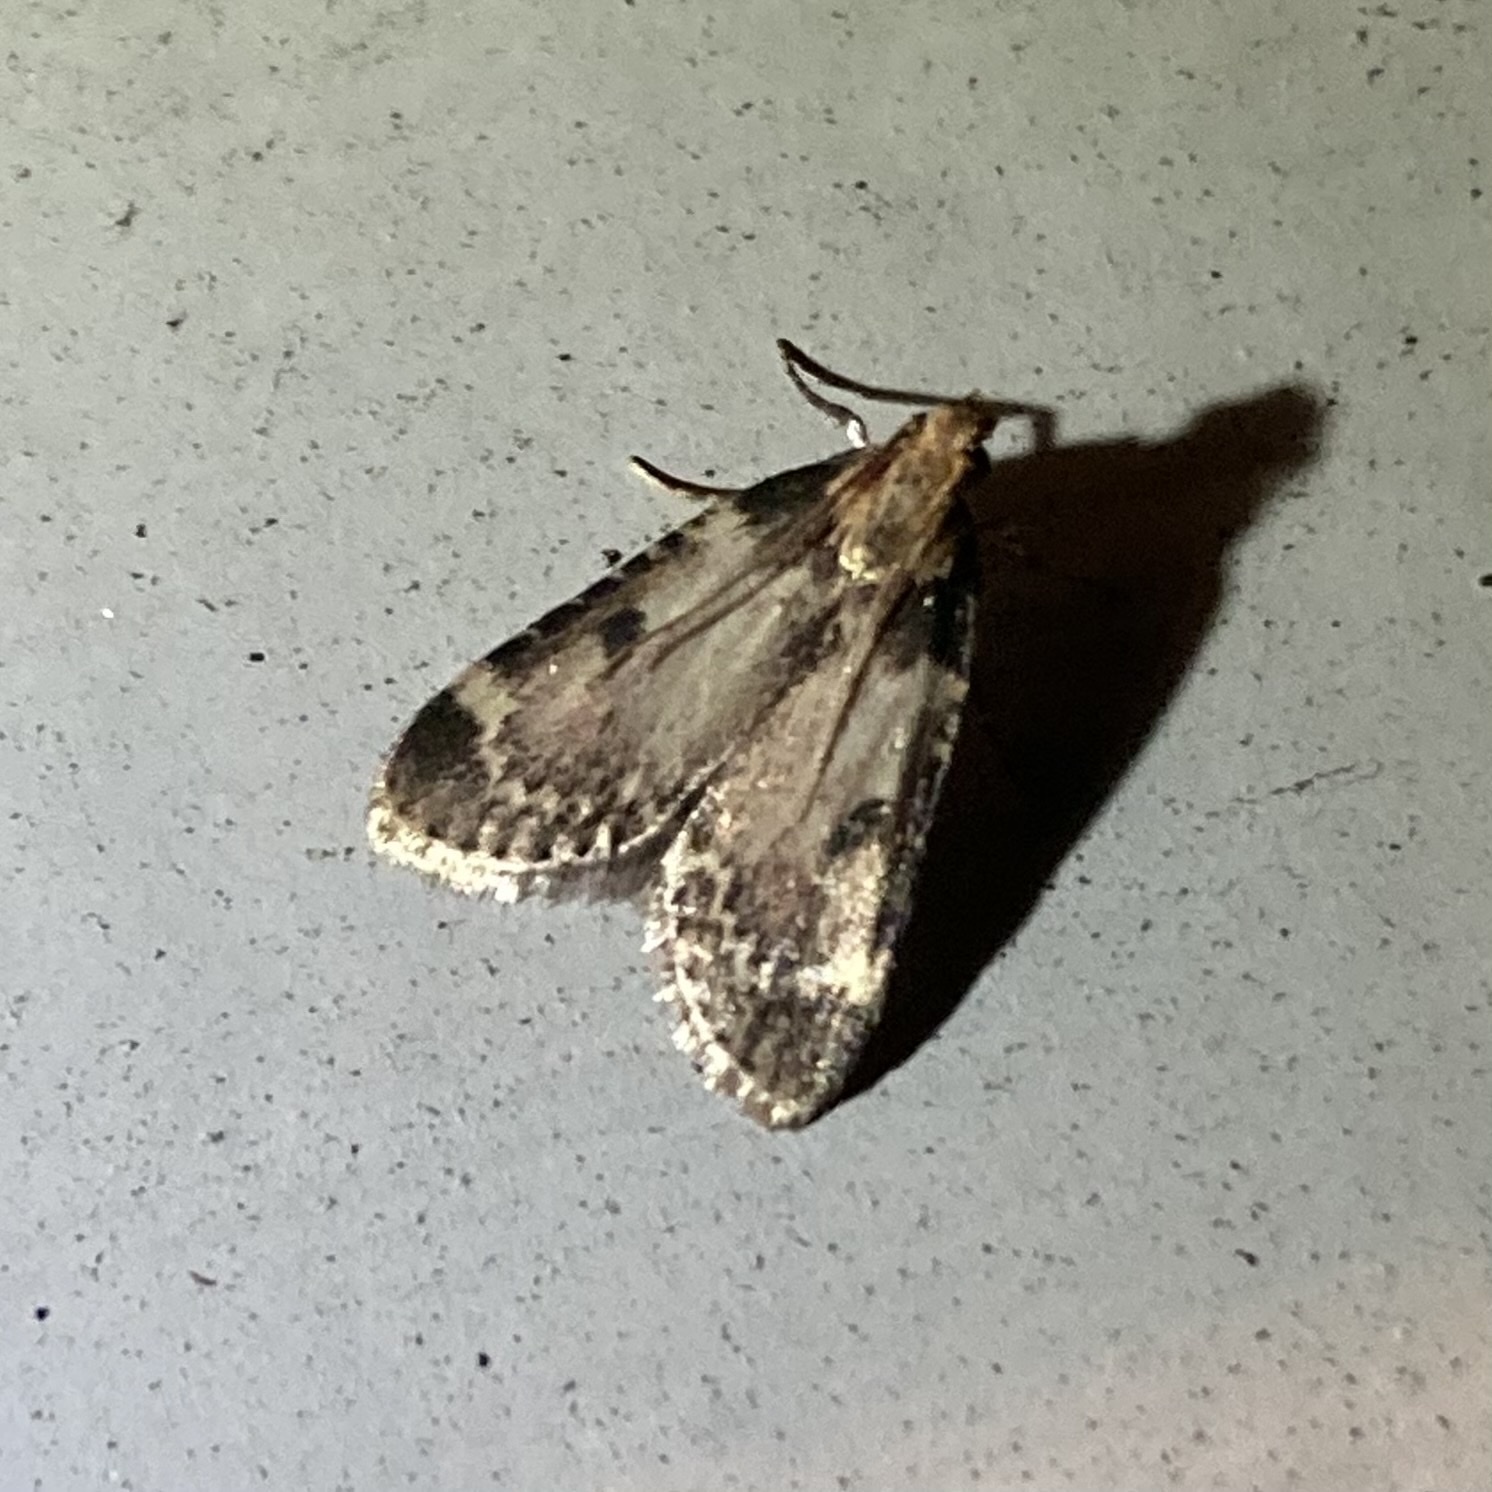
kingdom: Animalia
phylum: Arthropoda
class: Insecta
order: Lepidoptera
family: Pyralidae
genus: Aglossa
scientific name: Aglossa costiferalis
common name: Calico pyralid moth
